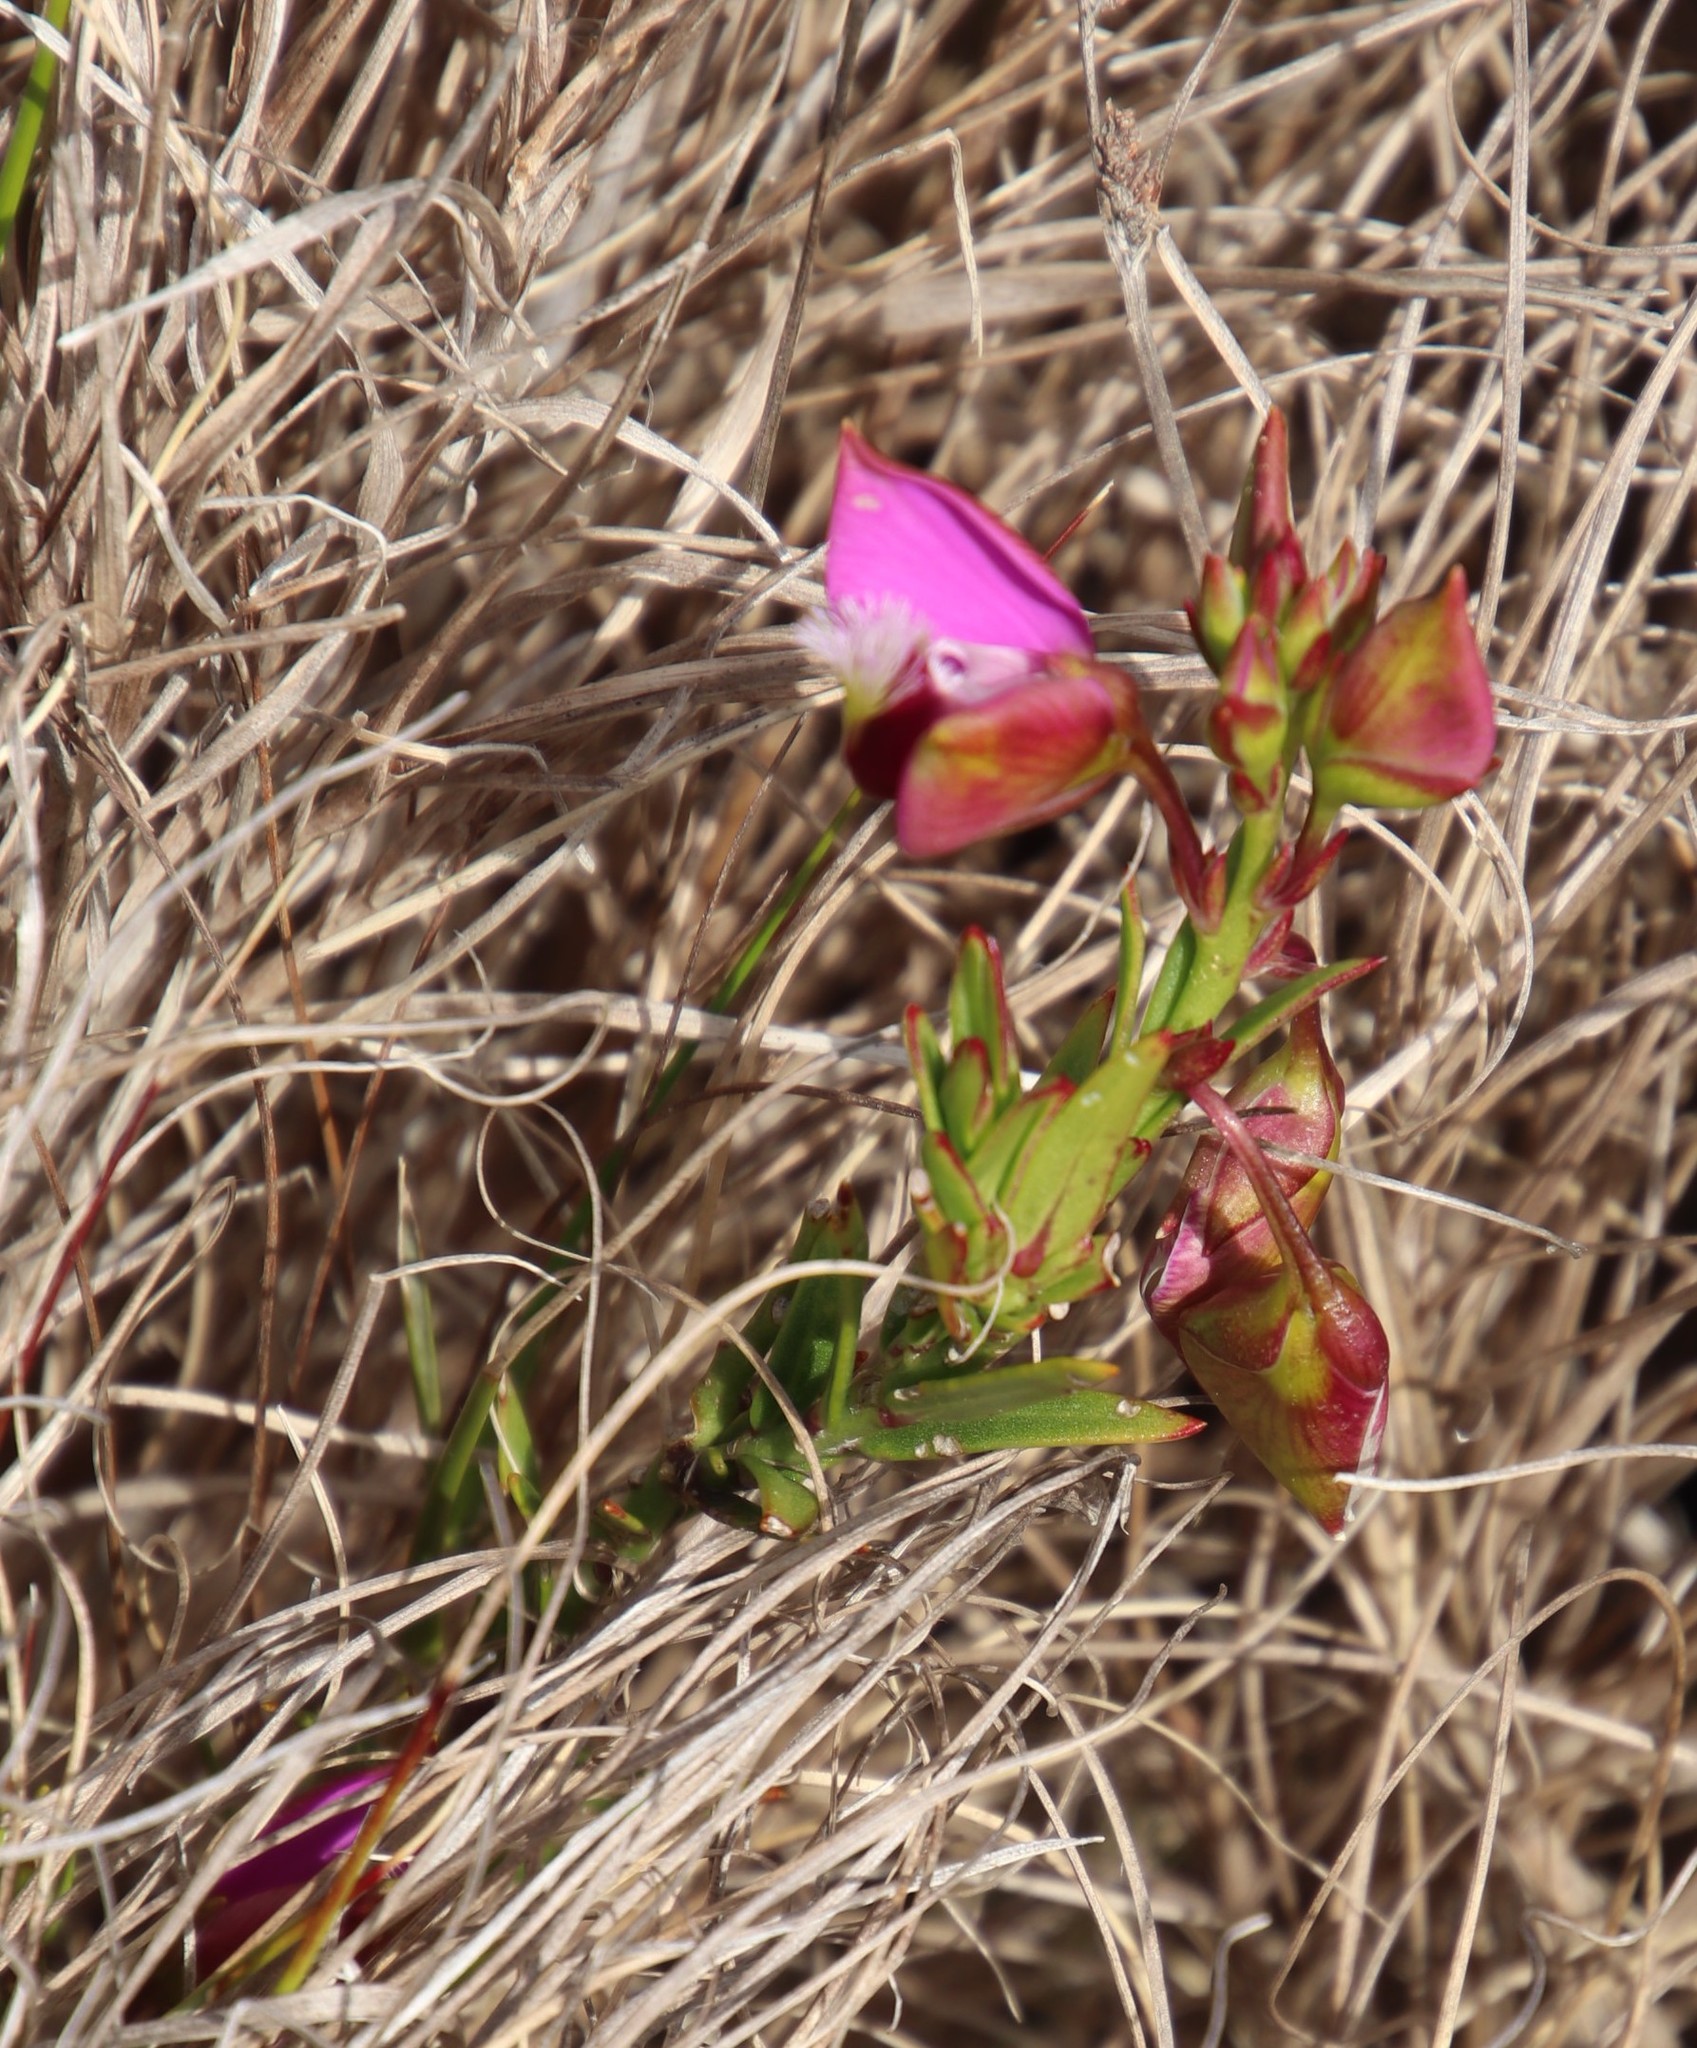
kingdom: Plantae
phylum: Tracheophyta
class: Magnoliopsida
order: Fabales
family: Polygalaceae
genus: Polygala
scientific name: Polygala bracteolata
